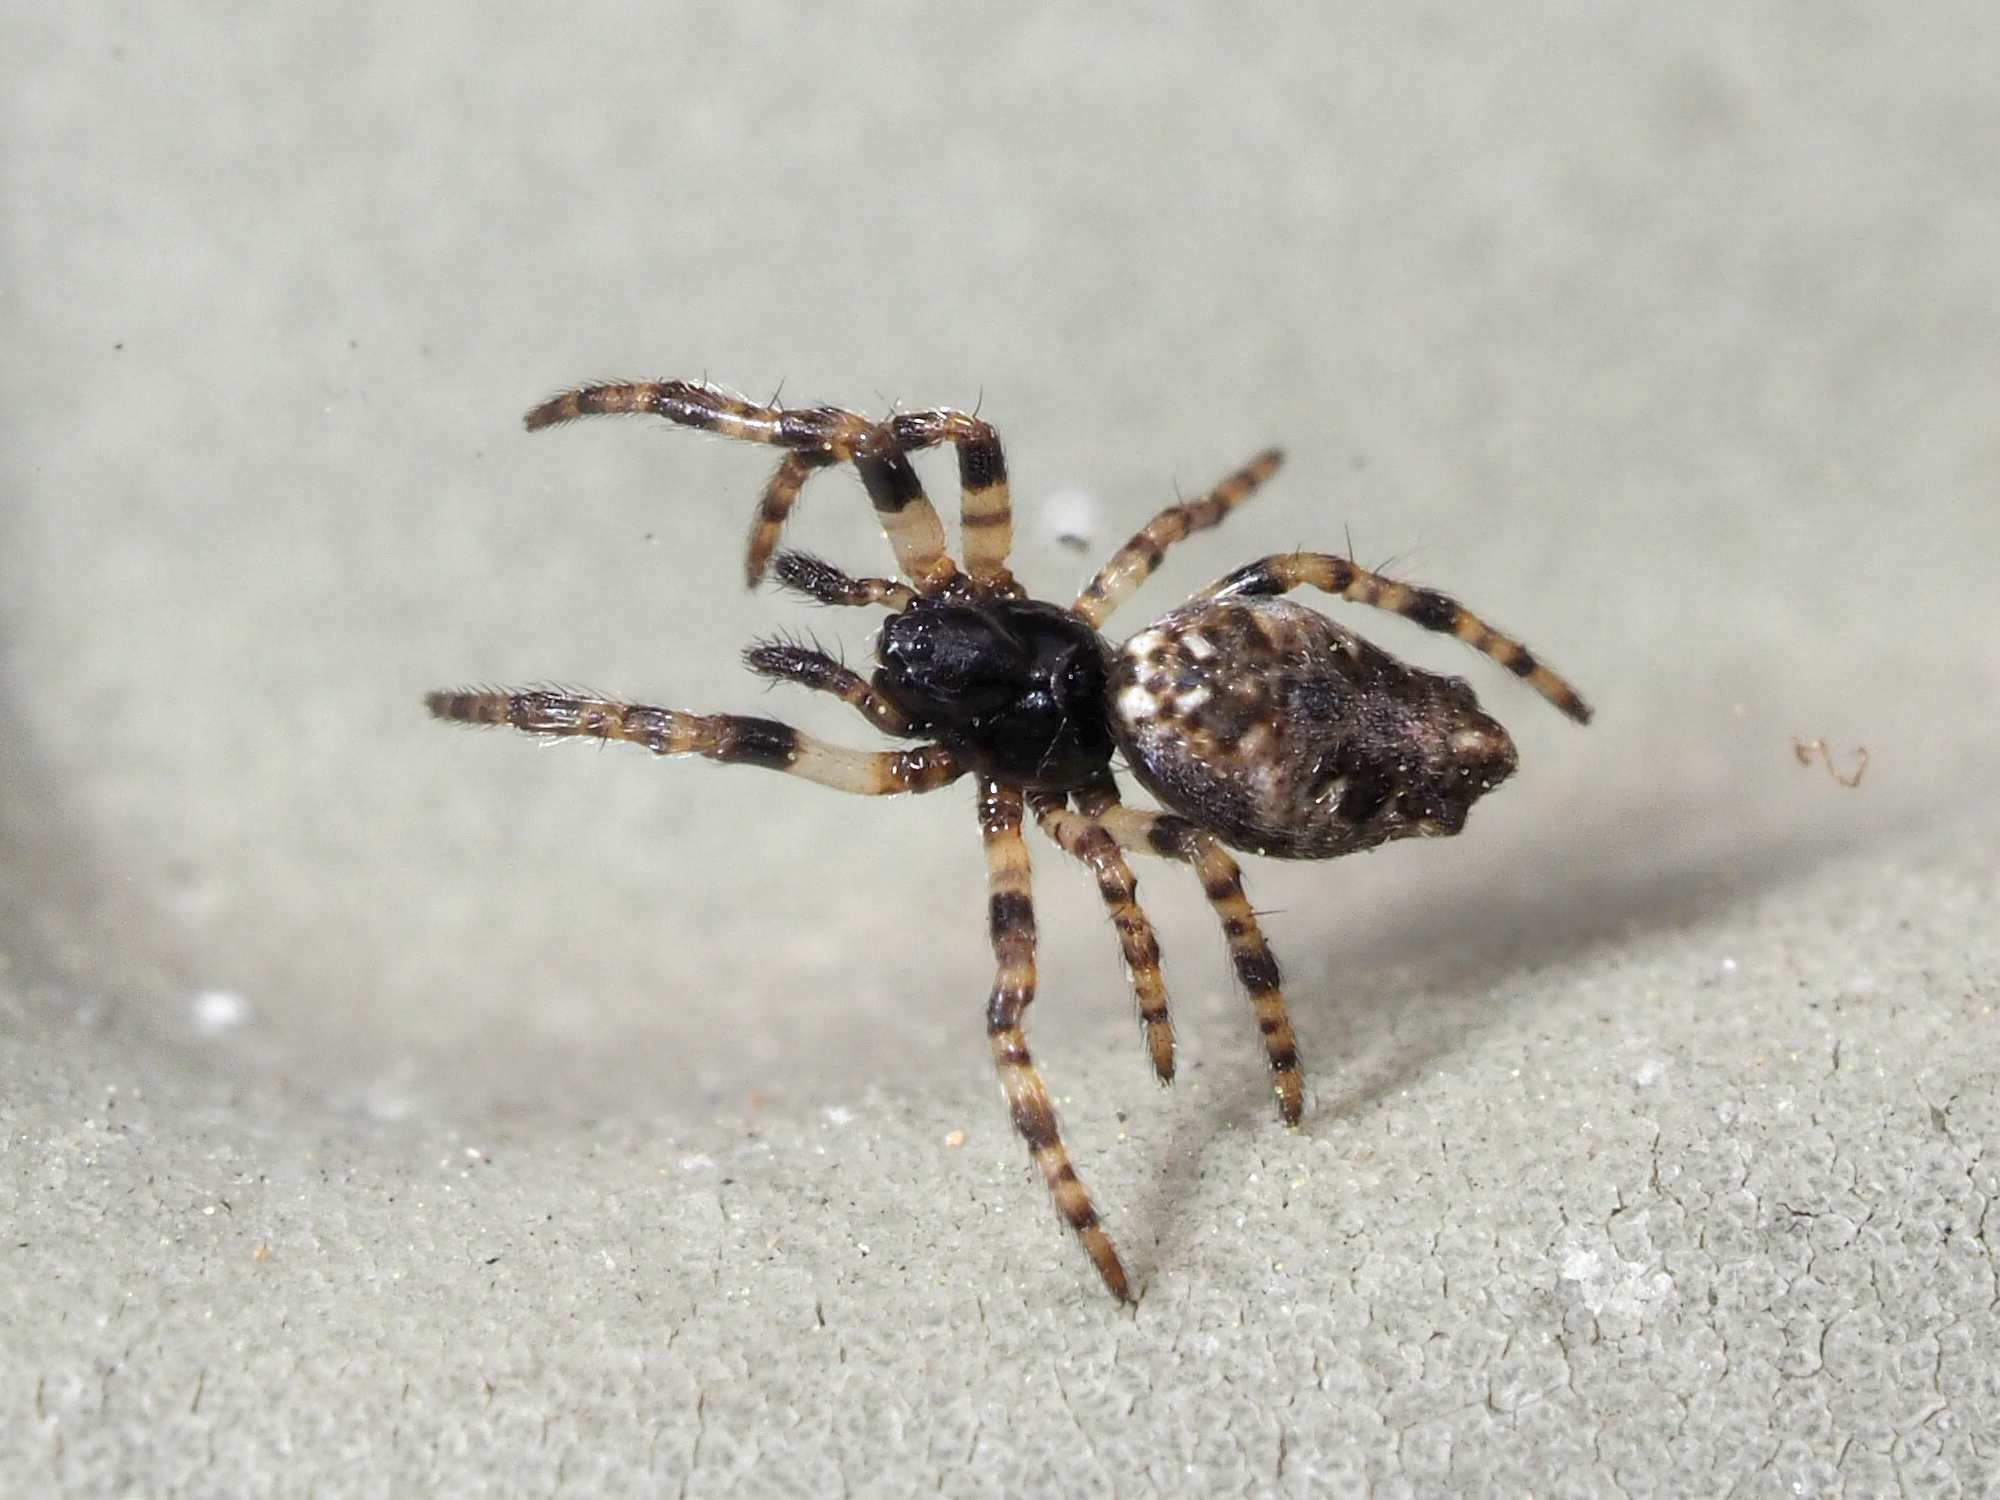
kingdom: Animalia
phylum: Arthropoda
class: Arachnida
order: Araneae
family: Araneidae
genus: Cyclosa
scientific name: Cyclosa oculata
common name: Trashline orbweaver
